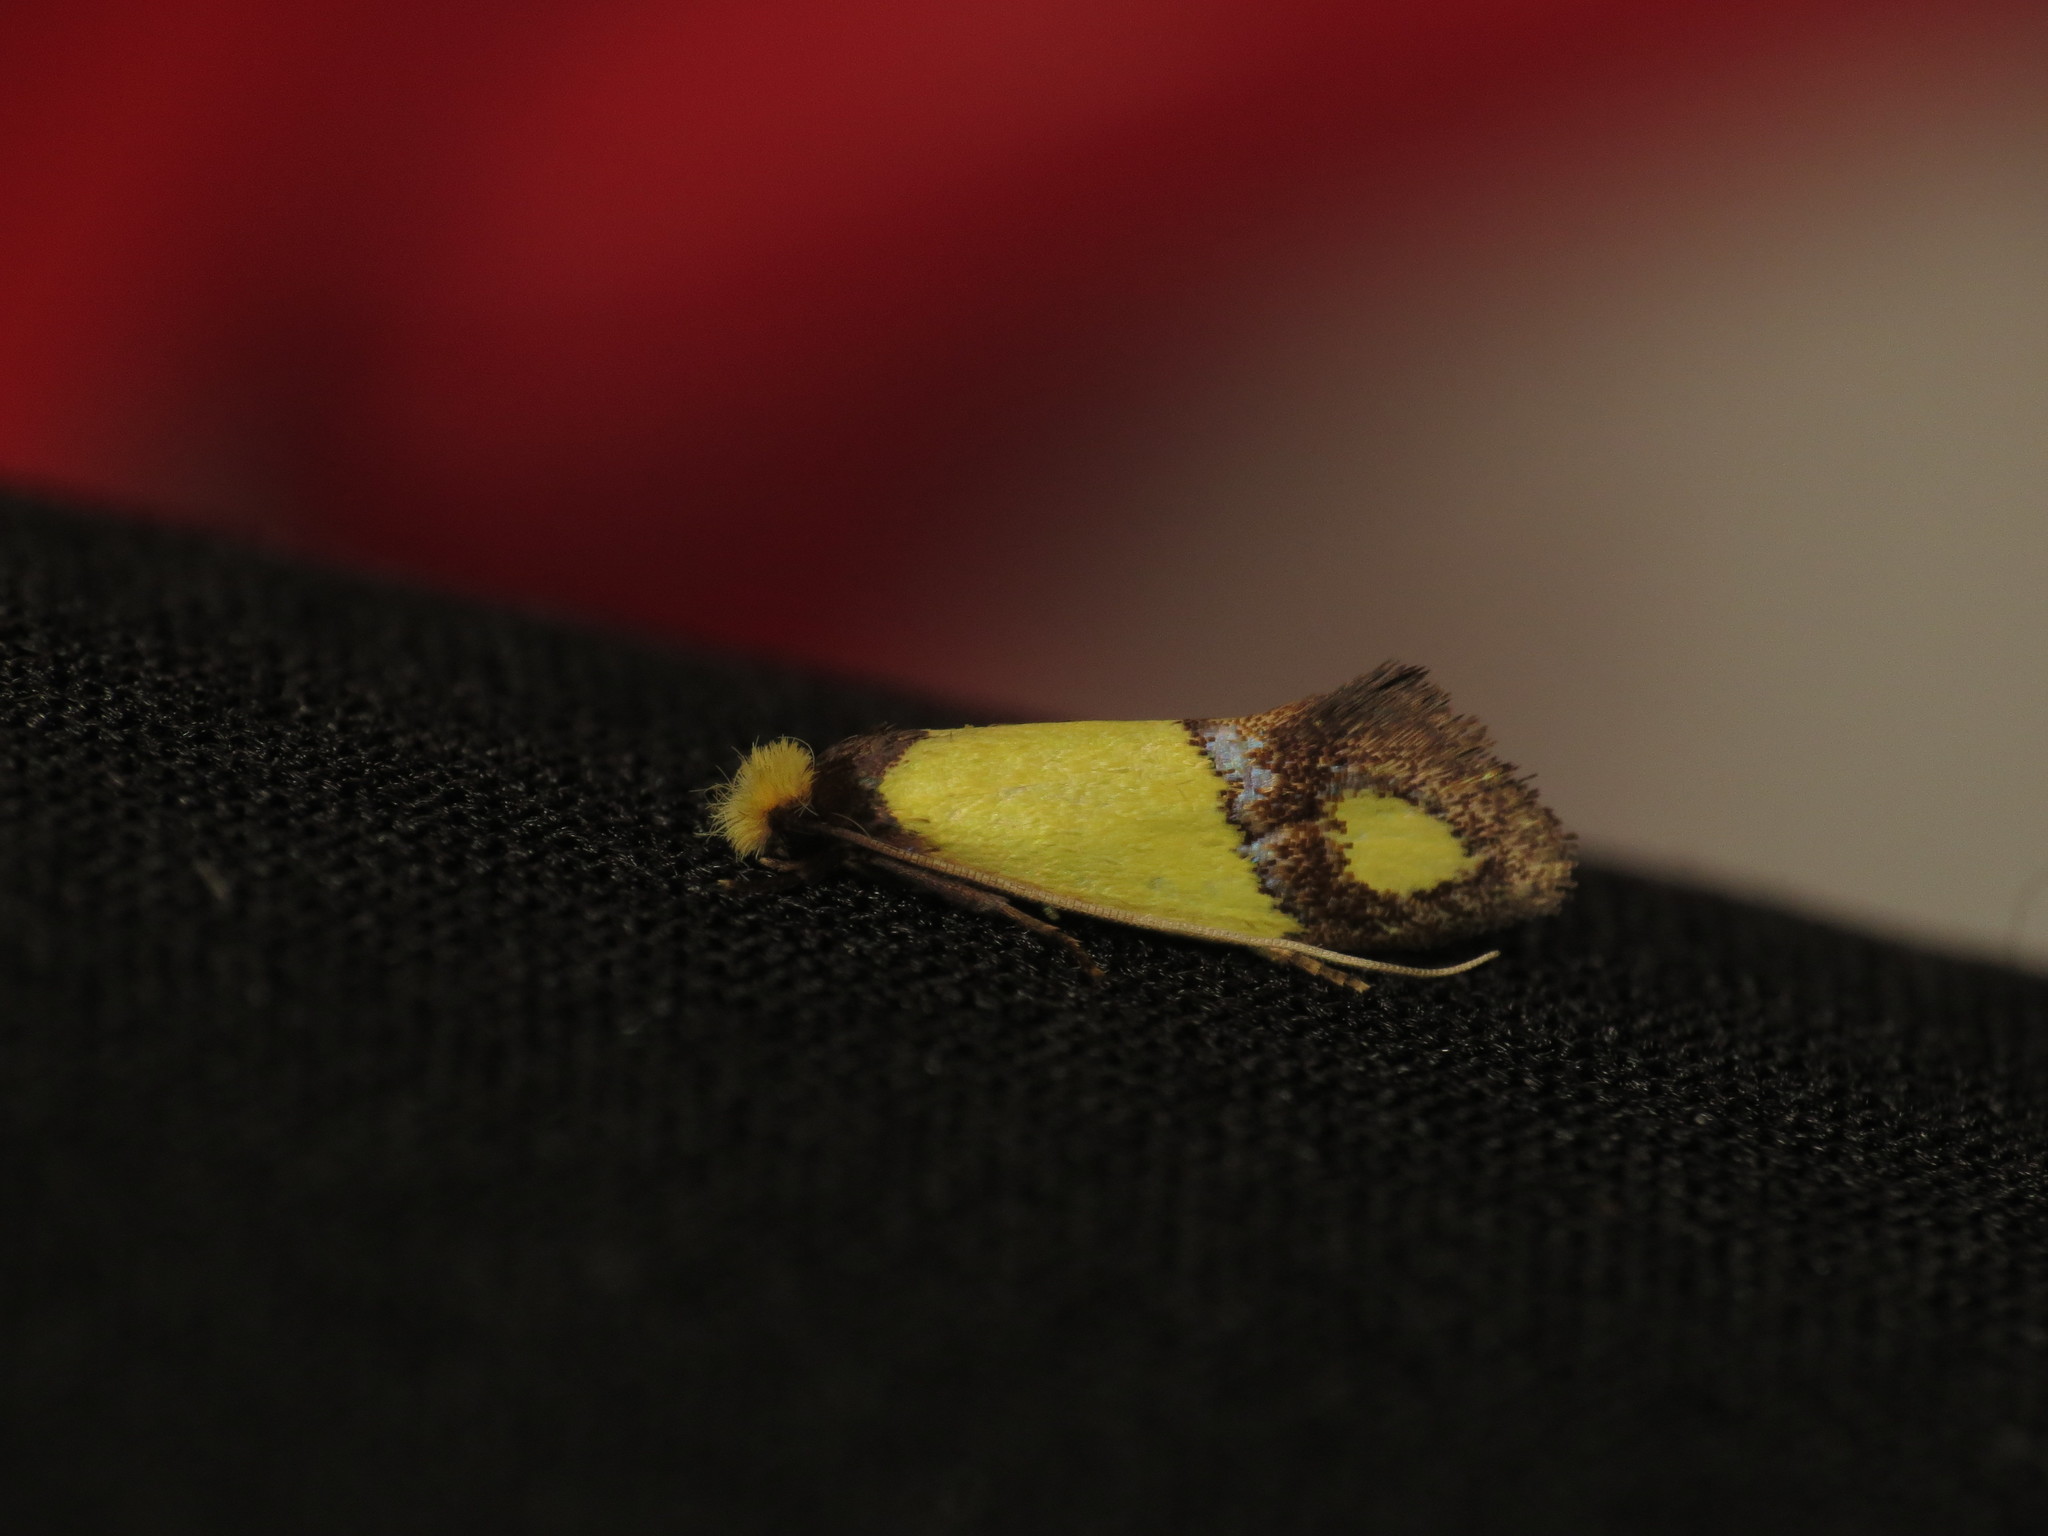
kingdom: Animalia
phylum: Arthropoda
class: Insecta
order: Lepidoptera
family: Tineidae
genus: Edosa
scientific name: Edosa fraudulens
